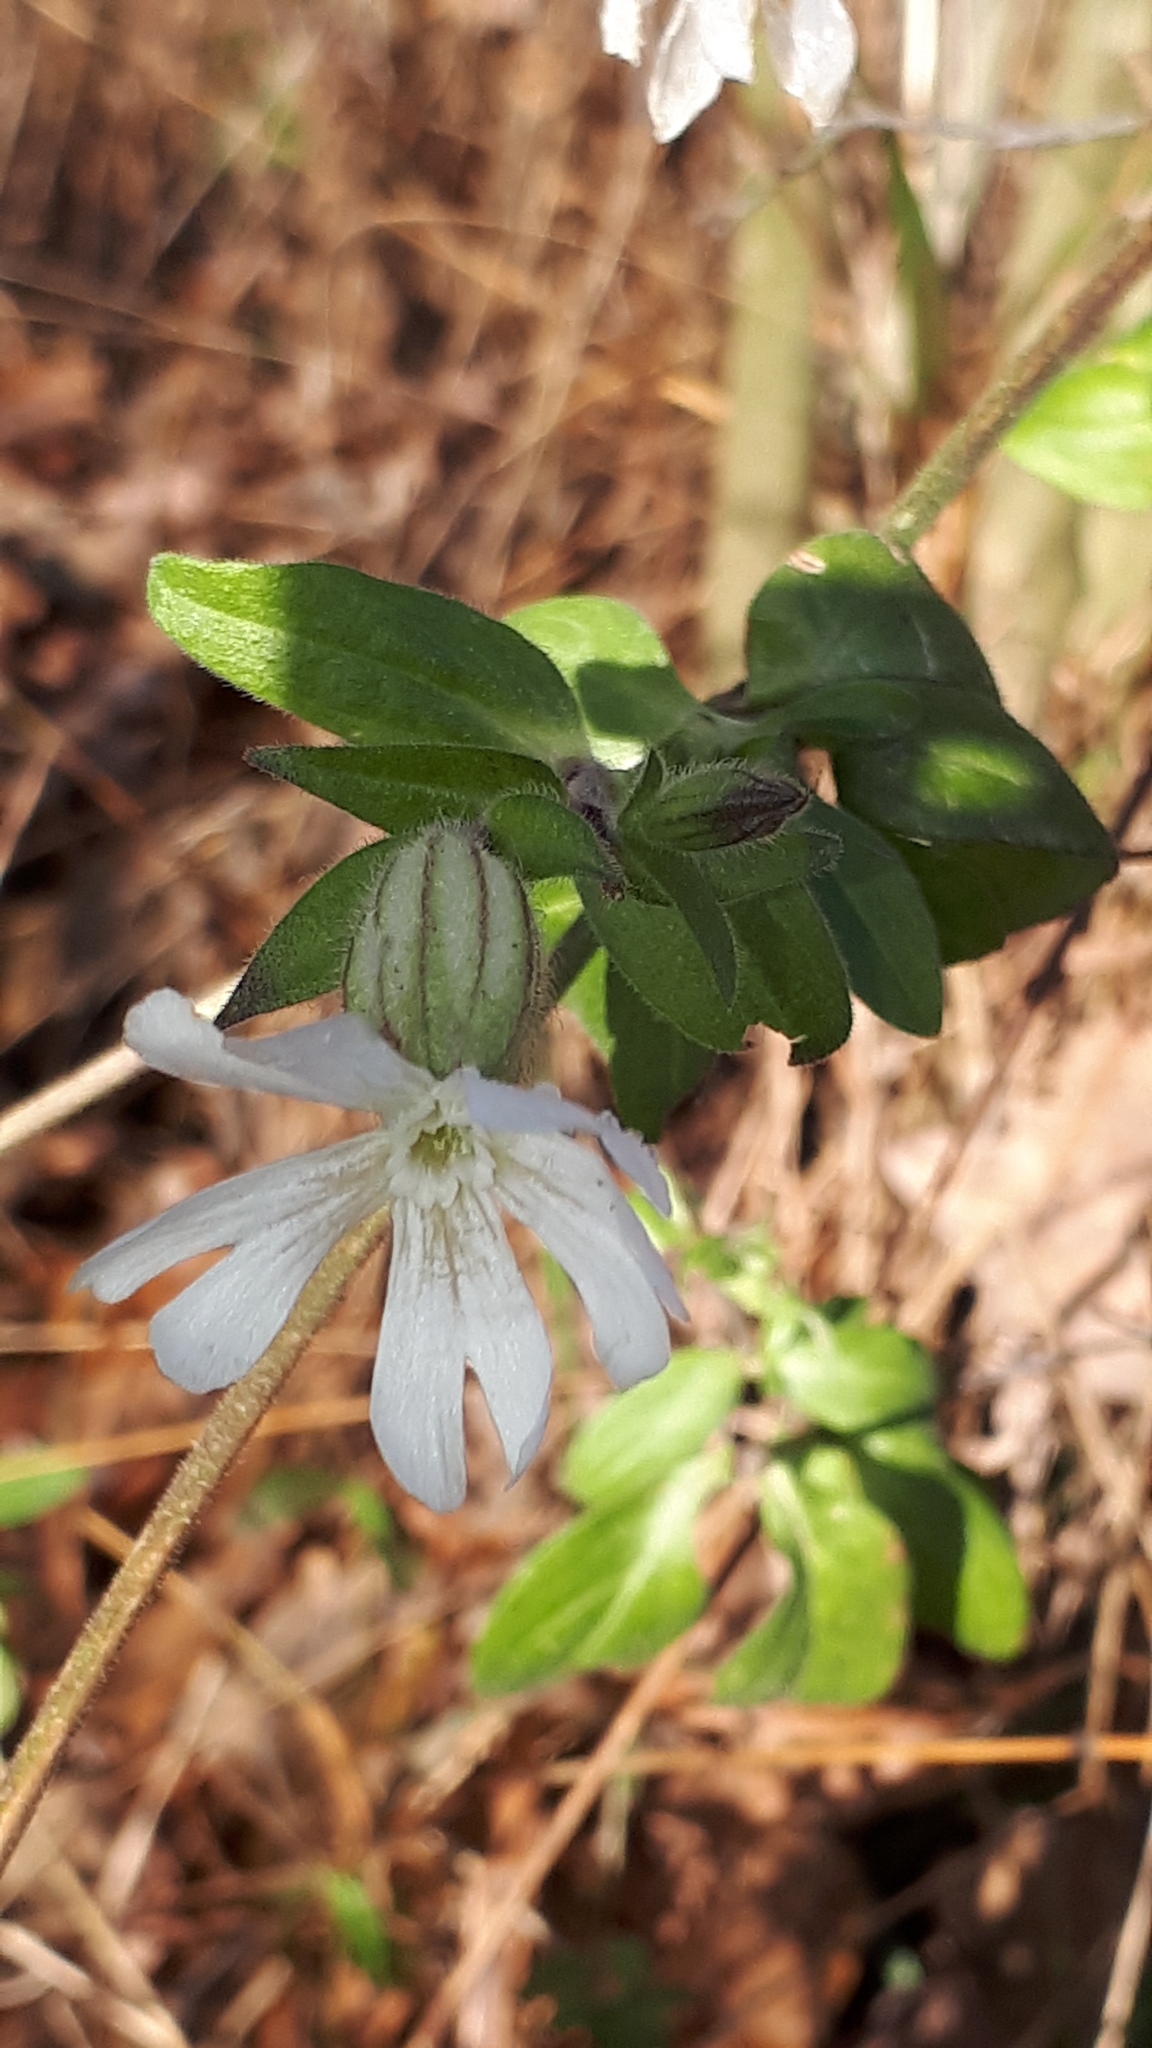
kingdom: Plantae
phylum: Tracheophyta
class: Magnoliopsida
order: Caryophyllales
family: Caryophyllaceae
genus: Silene
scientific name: Silene latifolia
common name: White campion
